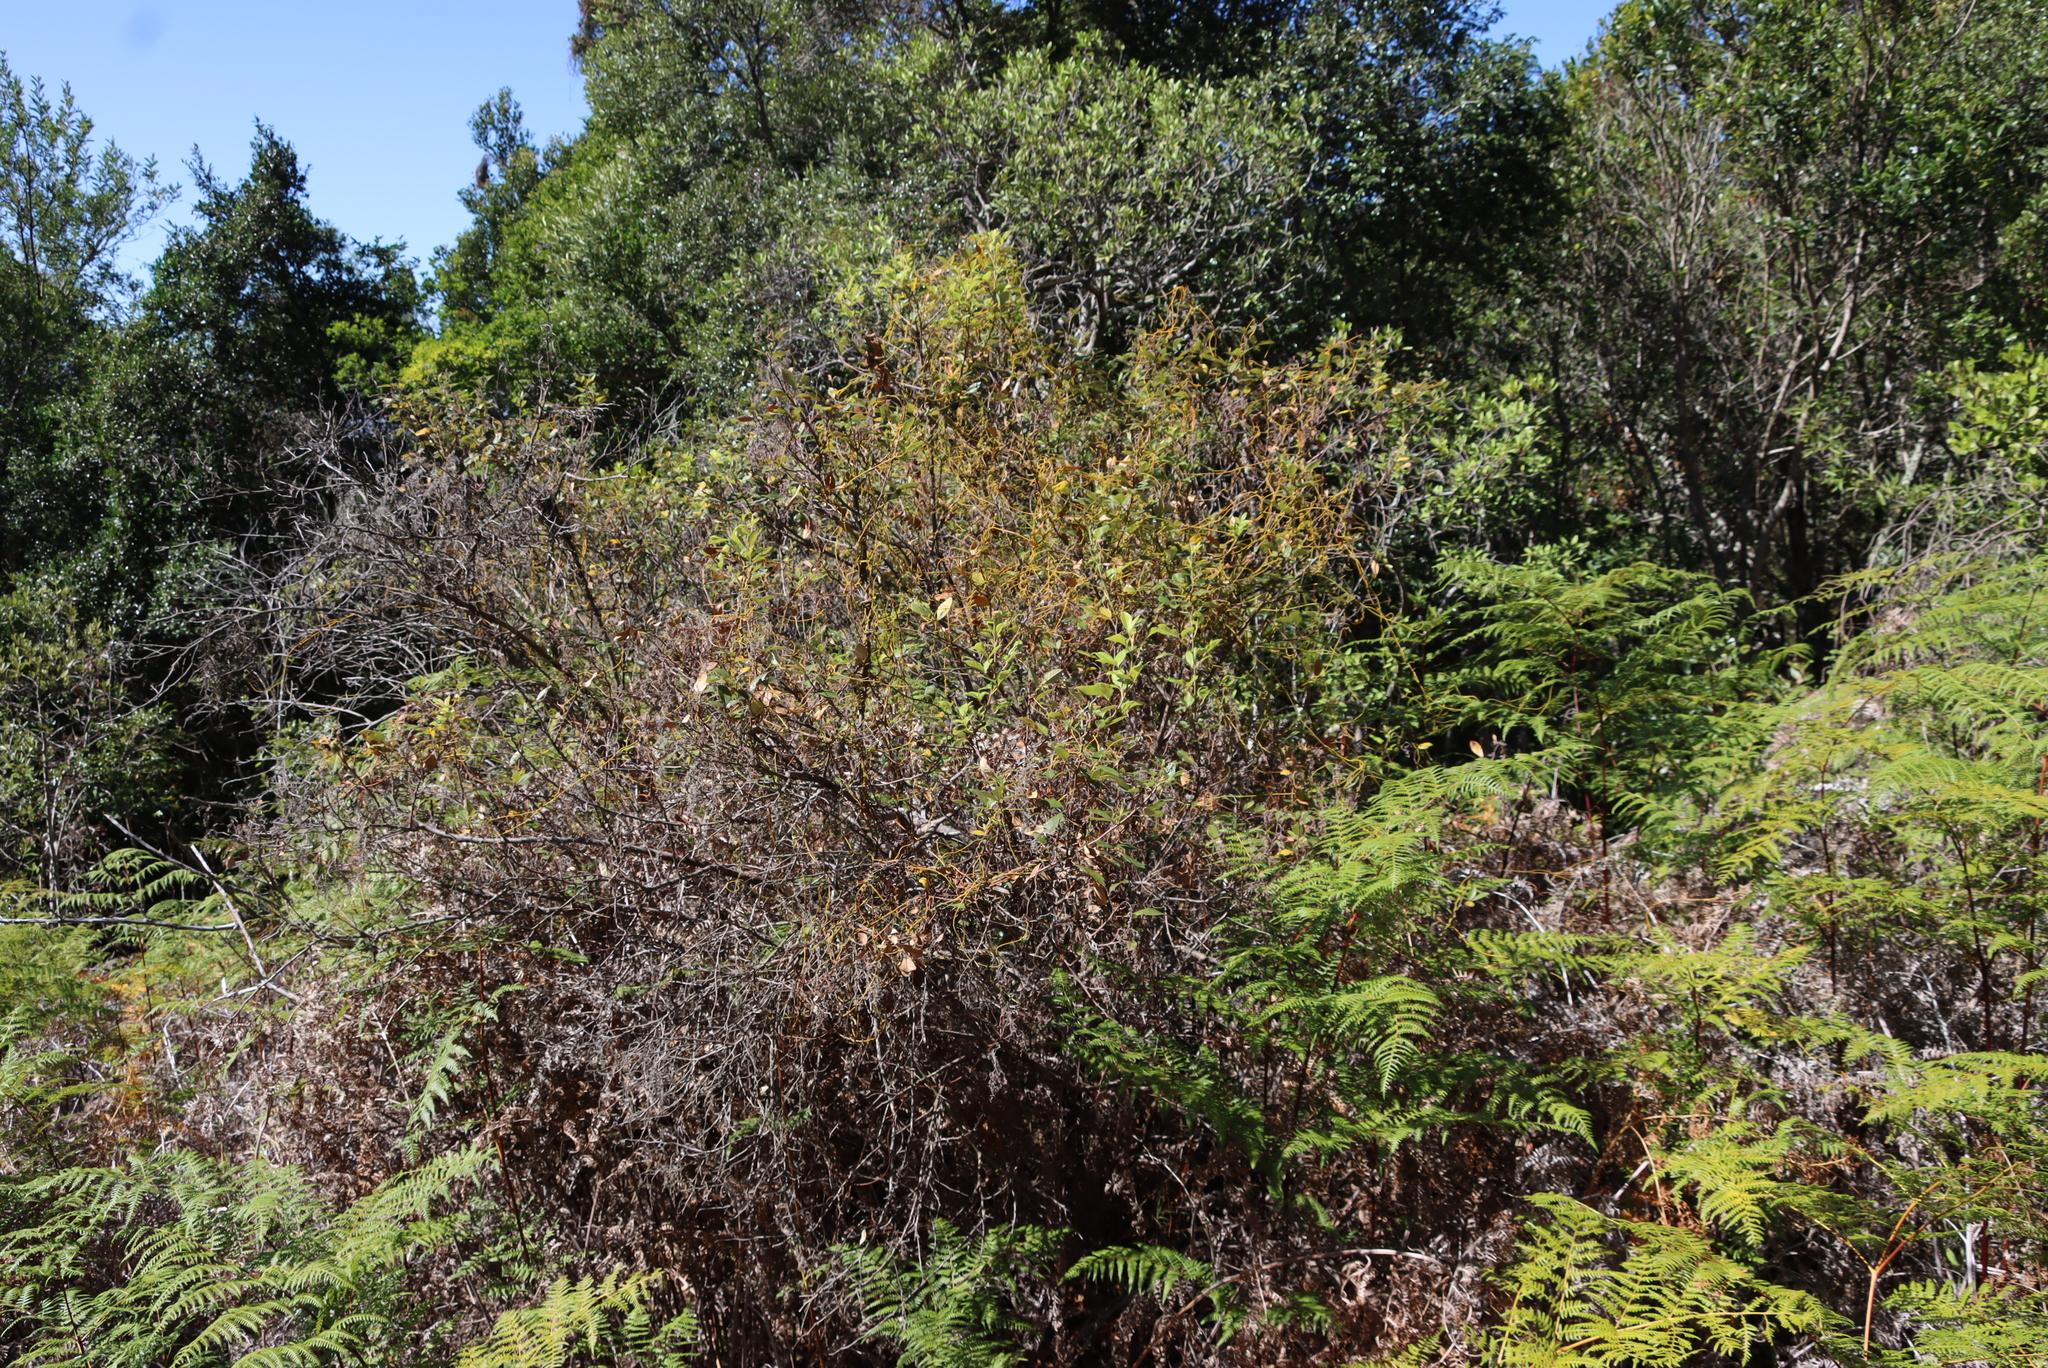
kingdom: Plantae
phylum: Tracheophyta
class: Magnoliopsida
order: Laurales
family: Lauraceae
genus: Cassytha
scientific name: Cassytha ciliolata
